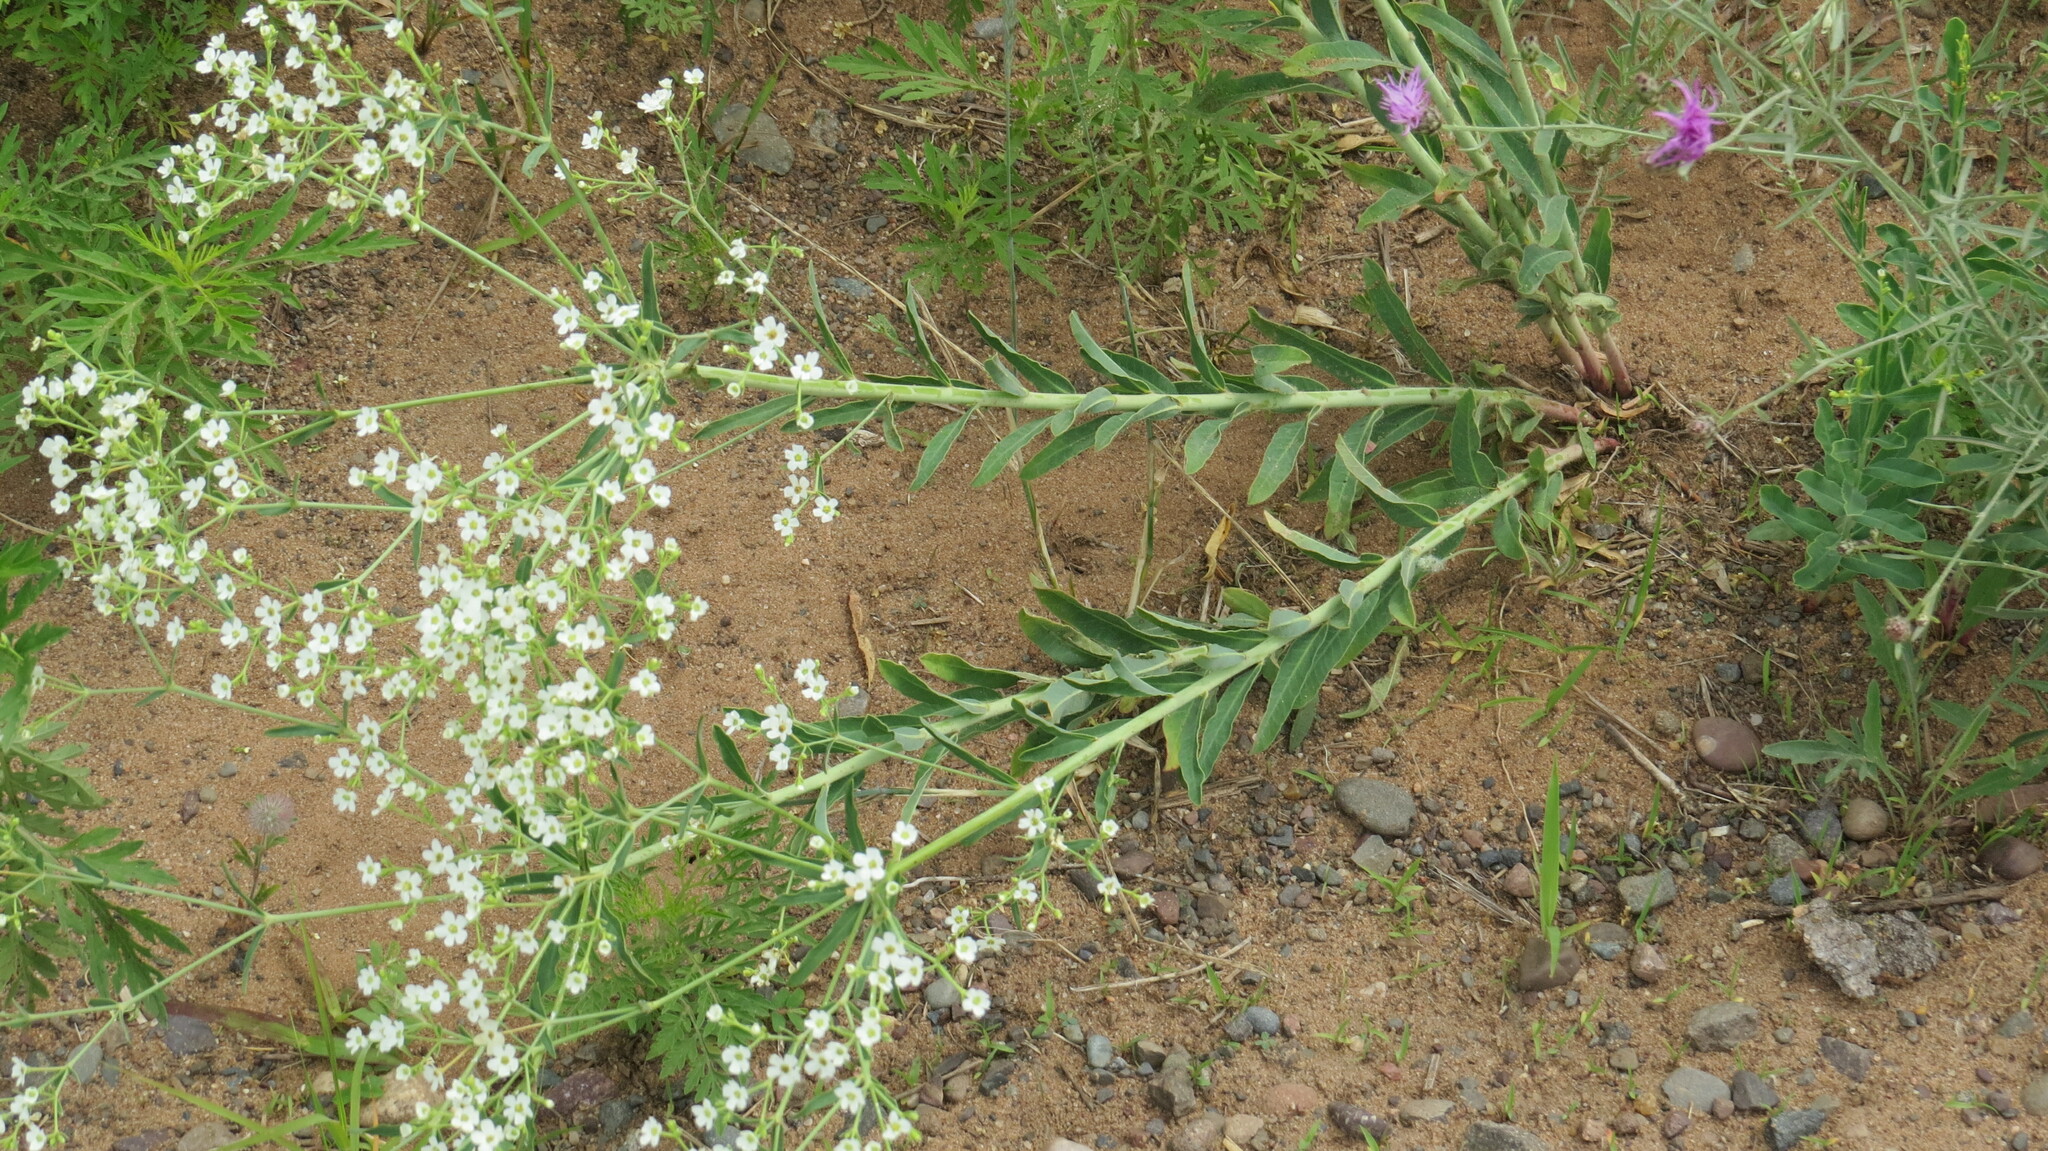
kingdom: Plantae
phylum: Tracheophyta
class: Magnoliopsida
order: Malpighiales
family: Euphorbiaceae
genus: Euphorbia
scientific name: Euphorbia corollata
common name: Flowering spurge
